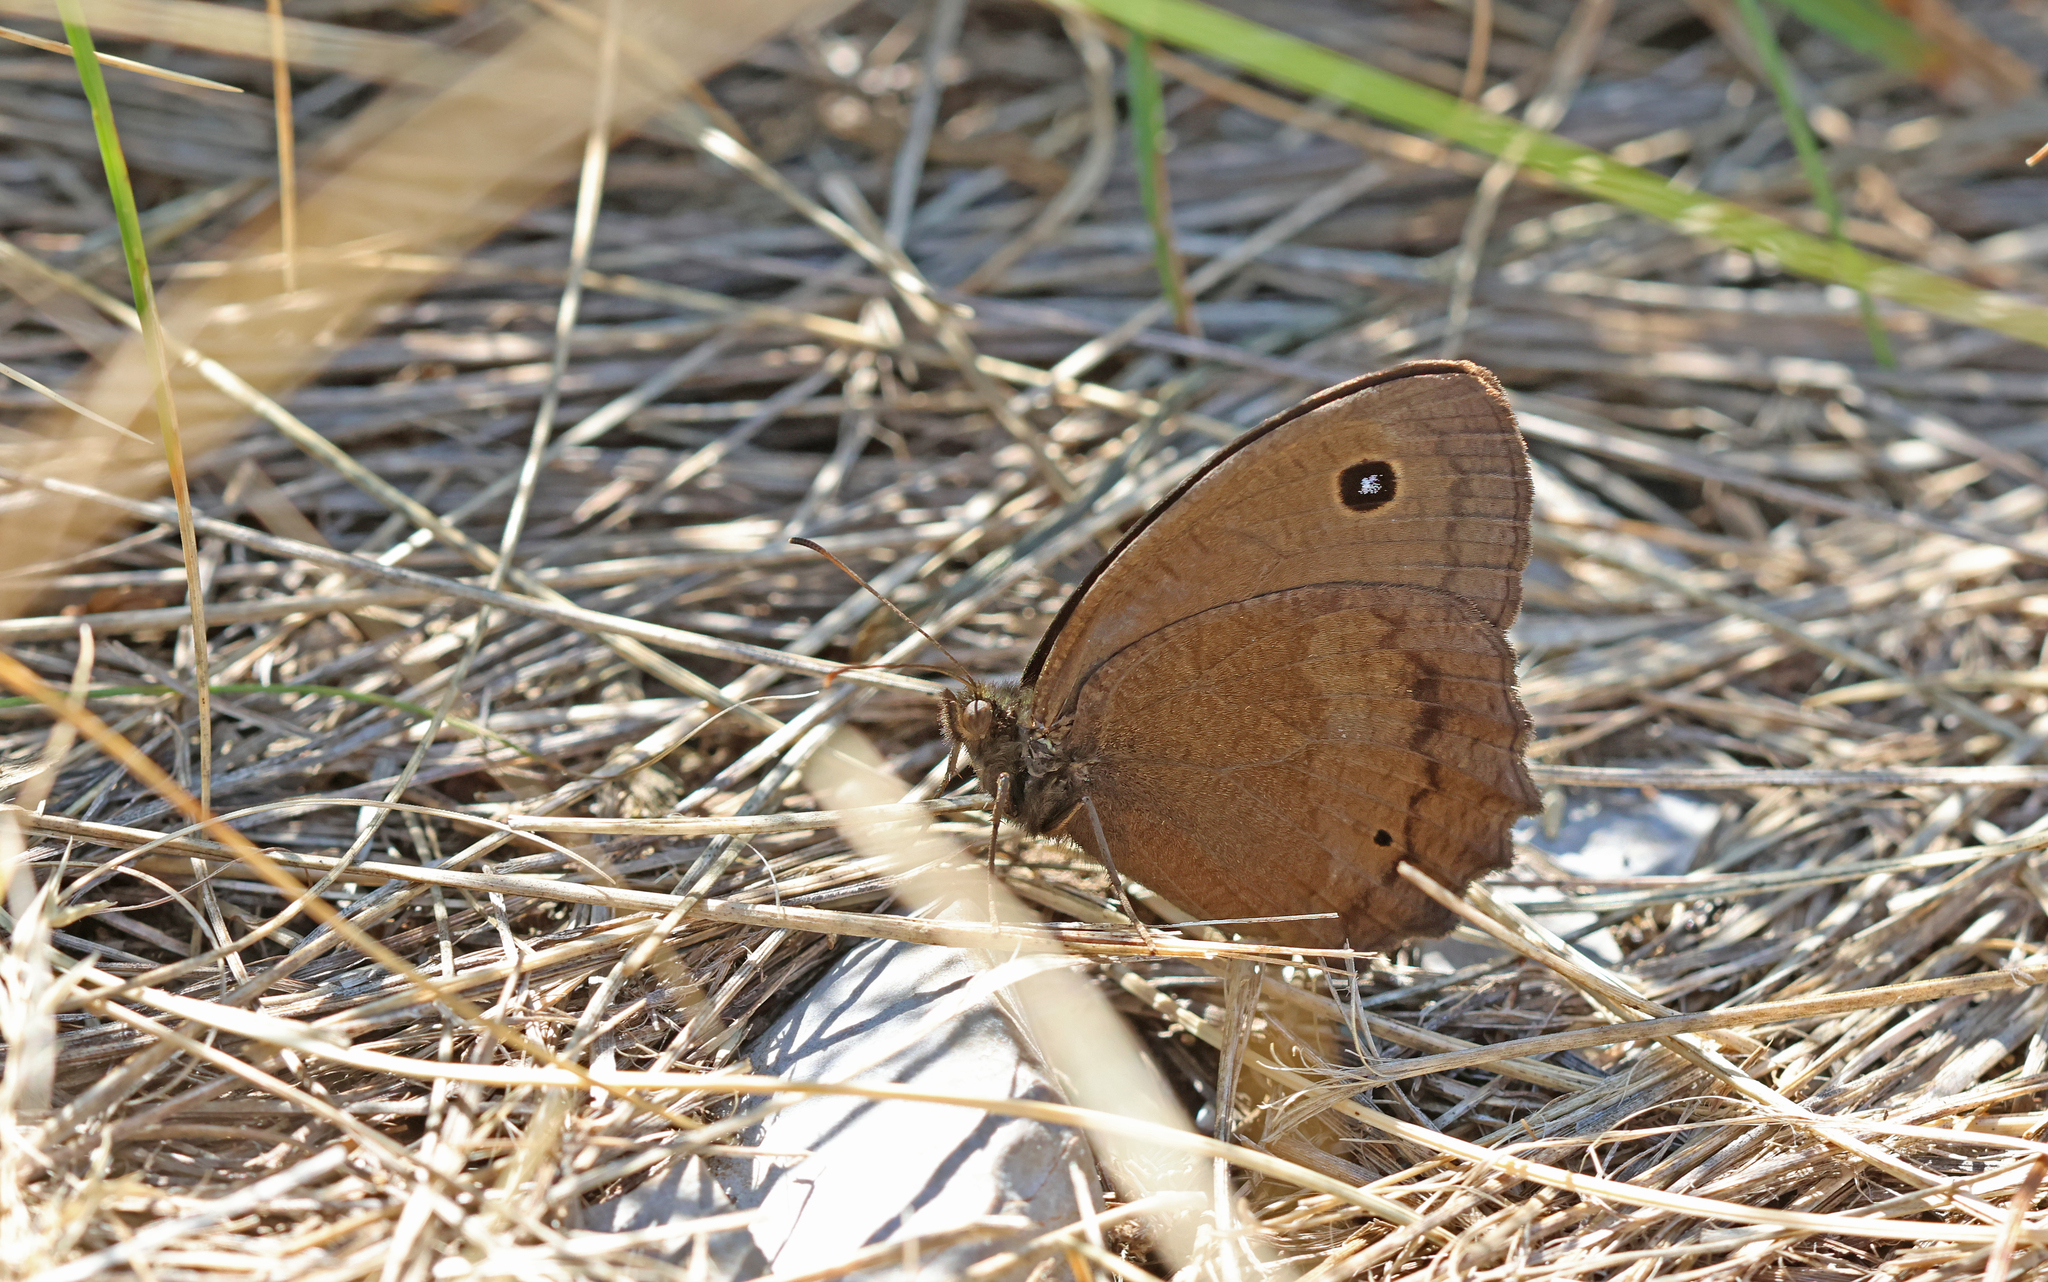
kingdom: Animalia
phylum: Arthropoda
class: Insecta
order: Lepidoptera
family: Nymphalidae
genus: Minois
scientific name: Minois dryas
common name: Dryad
